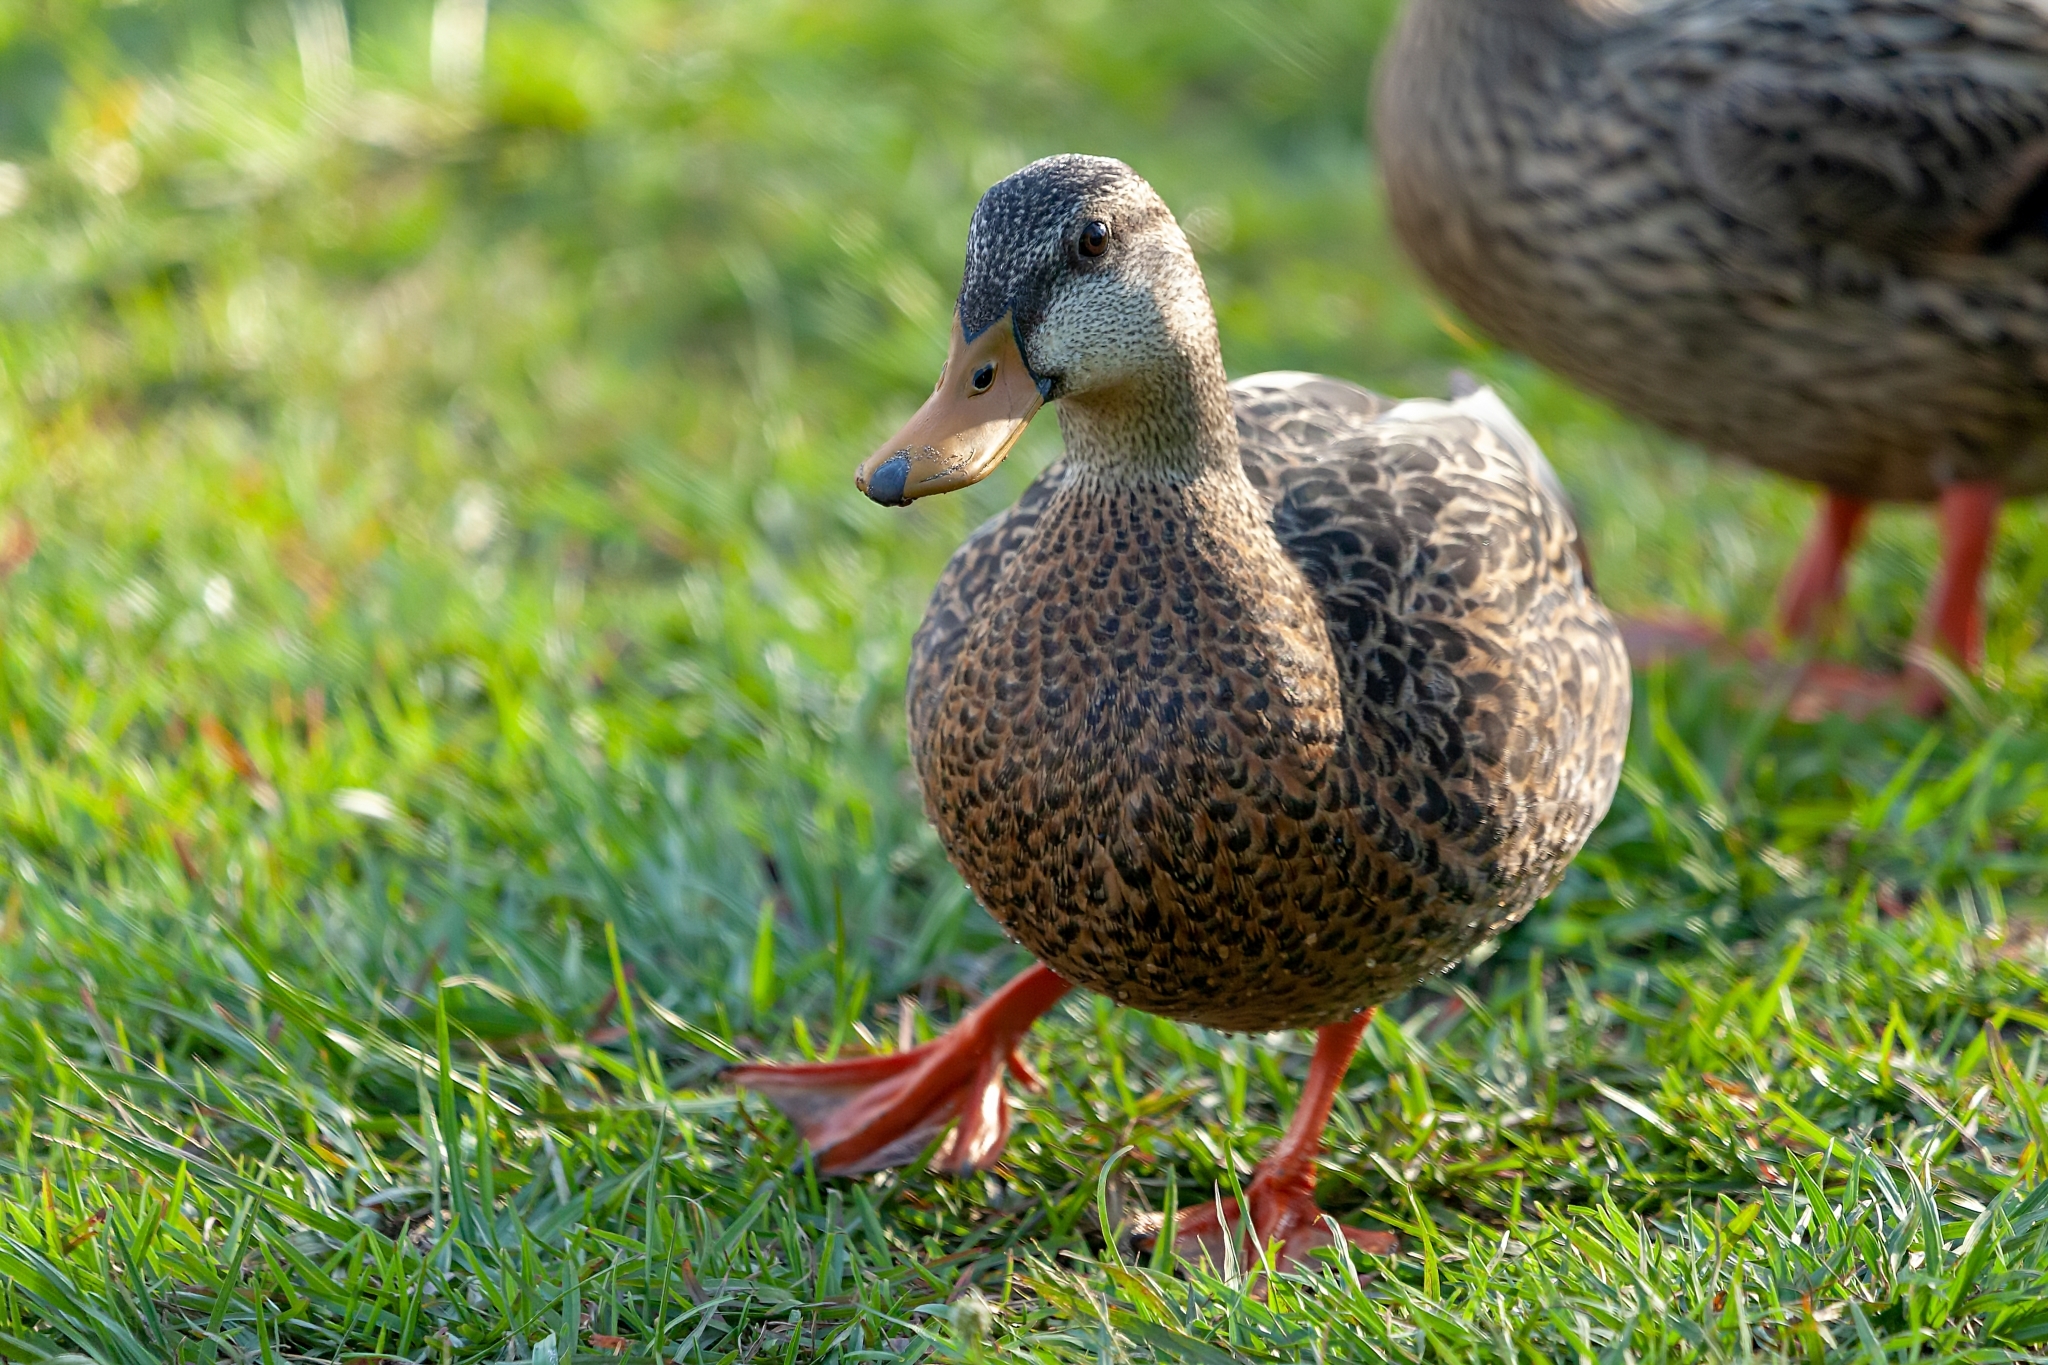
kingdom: Animalia
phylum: Chordata
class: Aves
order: Anseriformes
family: Anatidae
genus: Anas
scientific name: Anas
